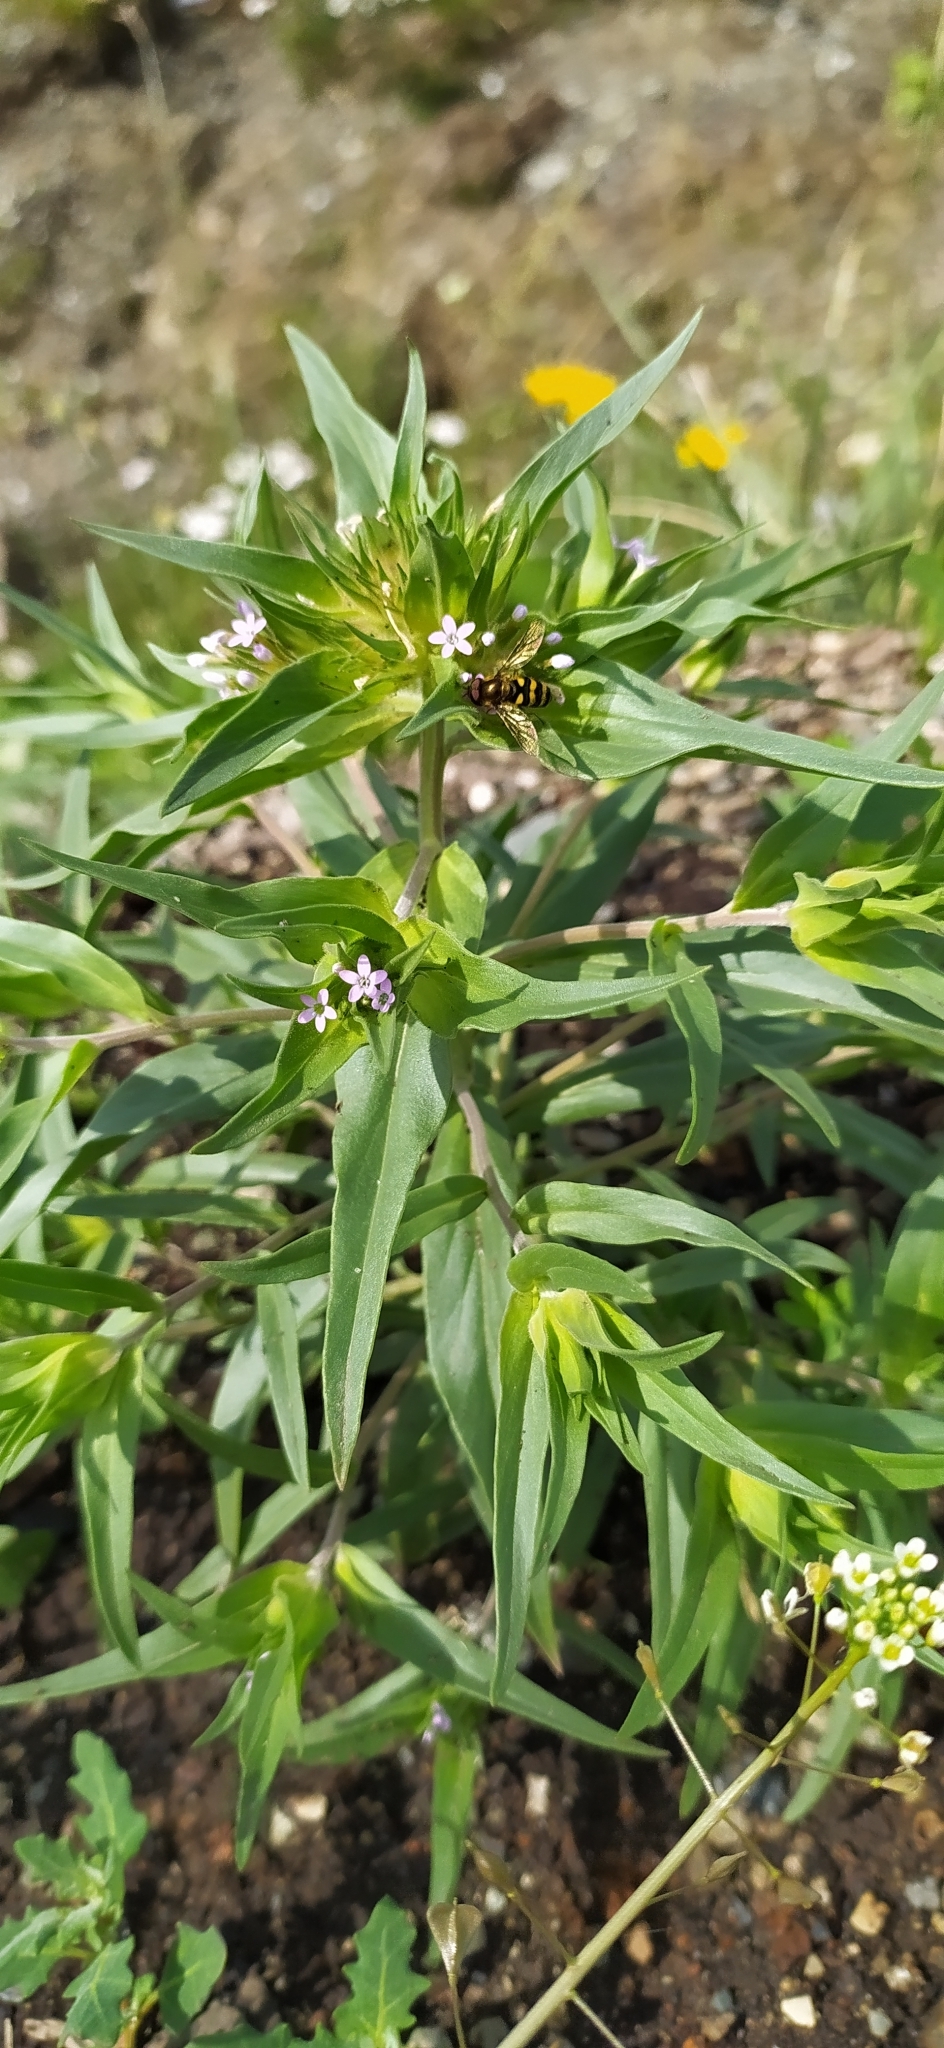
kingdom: Plantae
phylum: Tracheophyta
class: Magnoliopsida
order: Ericales
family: Polemoniaceae
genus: Collomia
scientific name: Collomia linearis
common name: Tiny trumpet
